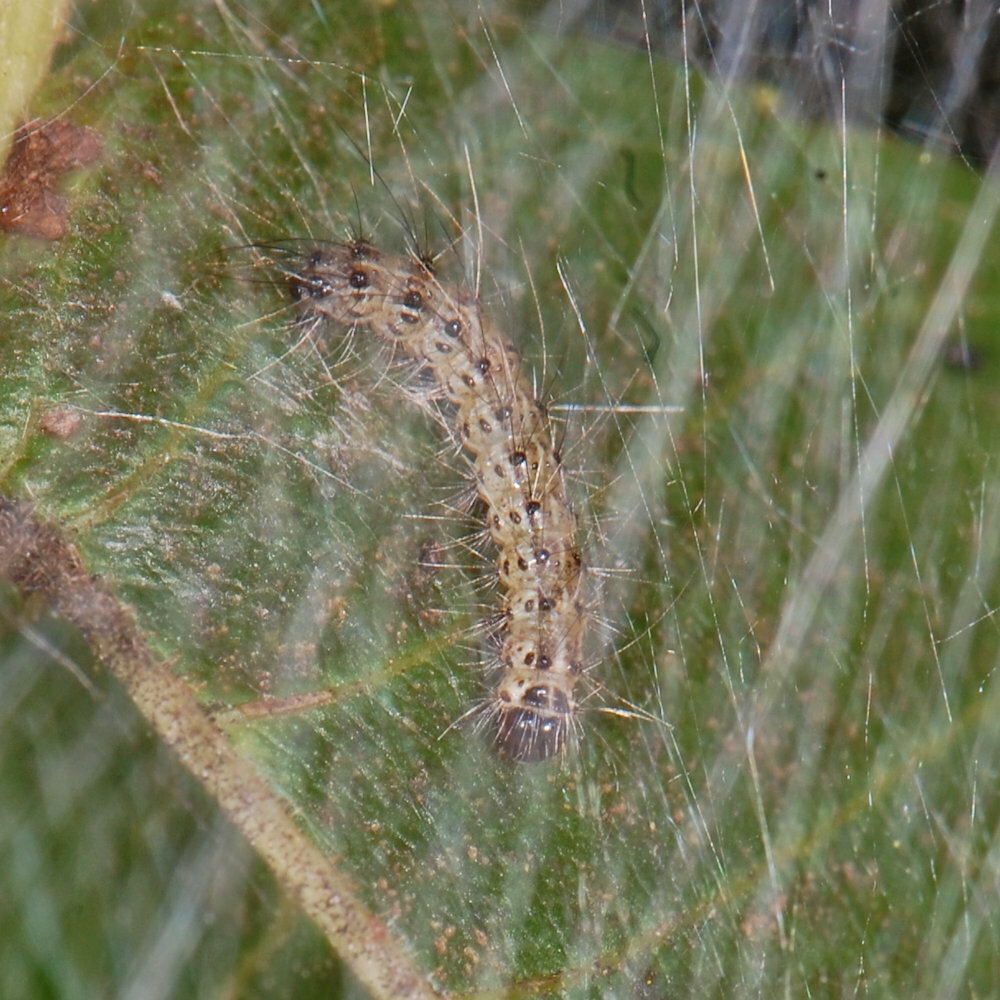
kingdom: Animalia
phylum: Arthropoda
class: Insecta
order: Lepidoptera
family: Erebidae
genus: Hyphantria
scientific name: Hyphantria cunea
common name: American white moth
